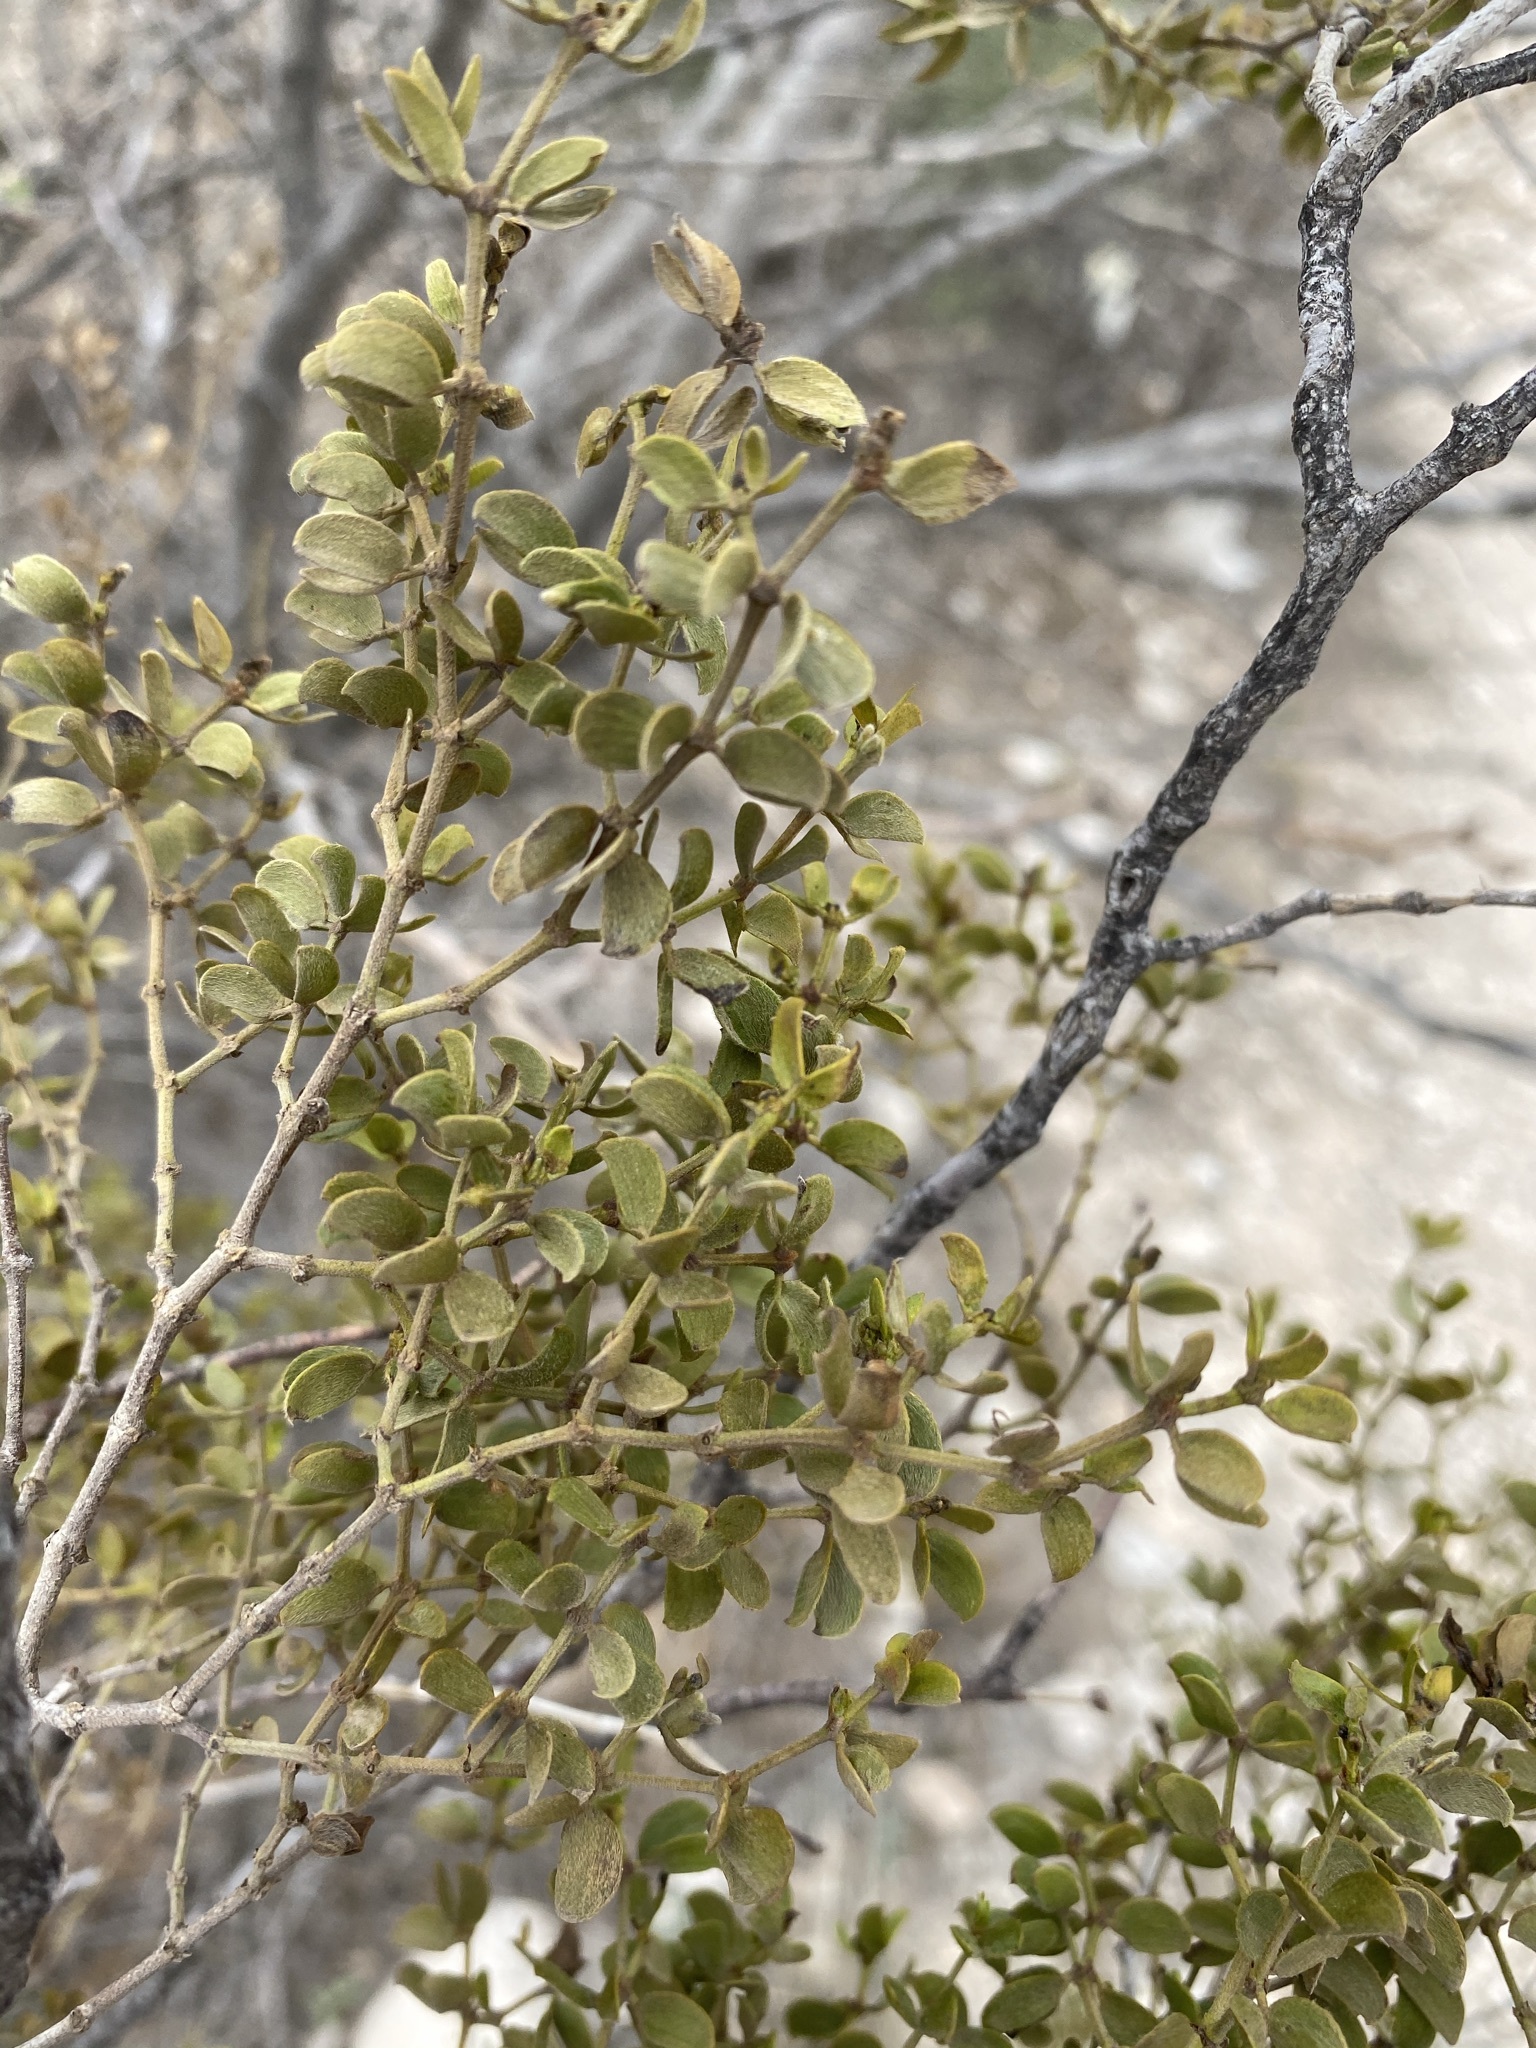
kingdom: Plantae
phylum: Tracheophyta
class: Magnoliopsida
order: Zygophyllales
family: Zygophyllaceae
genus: Larrea
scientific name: Larrea tridentata
